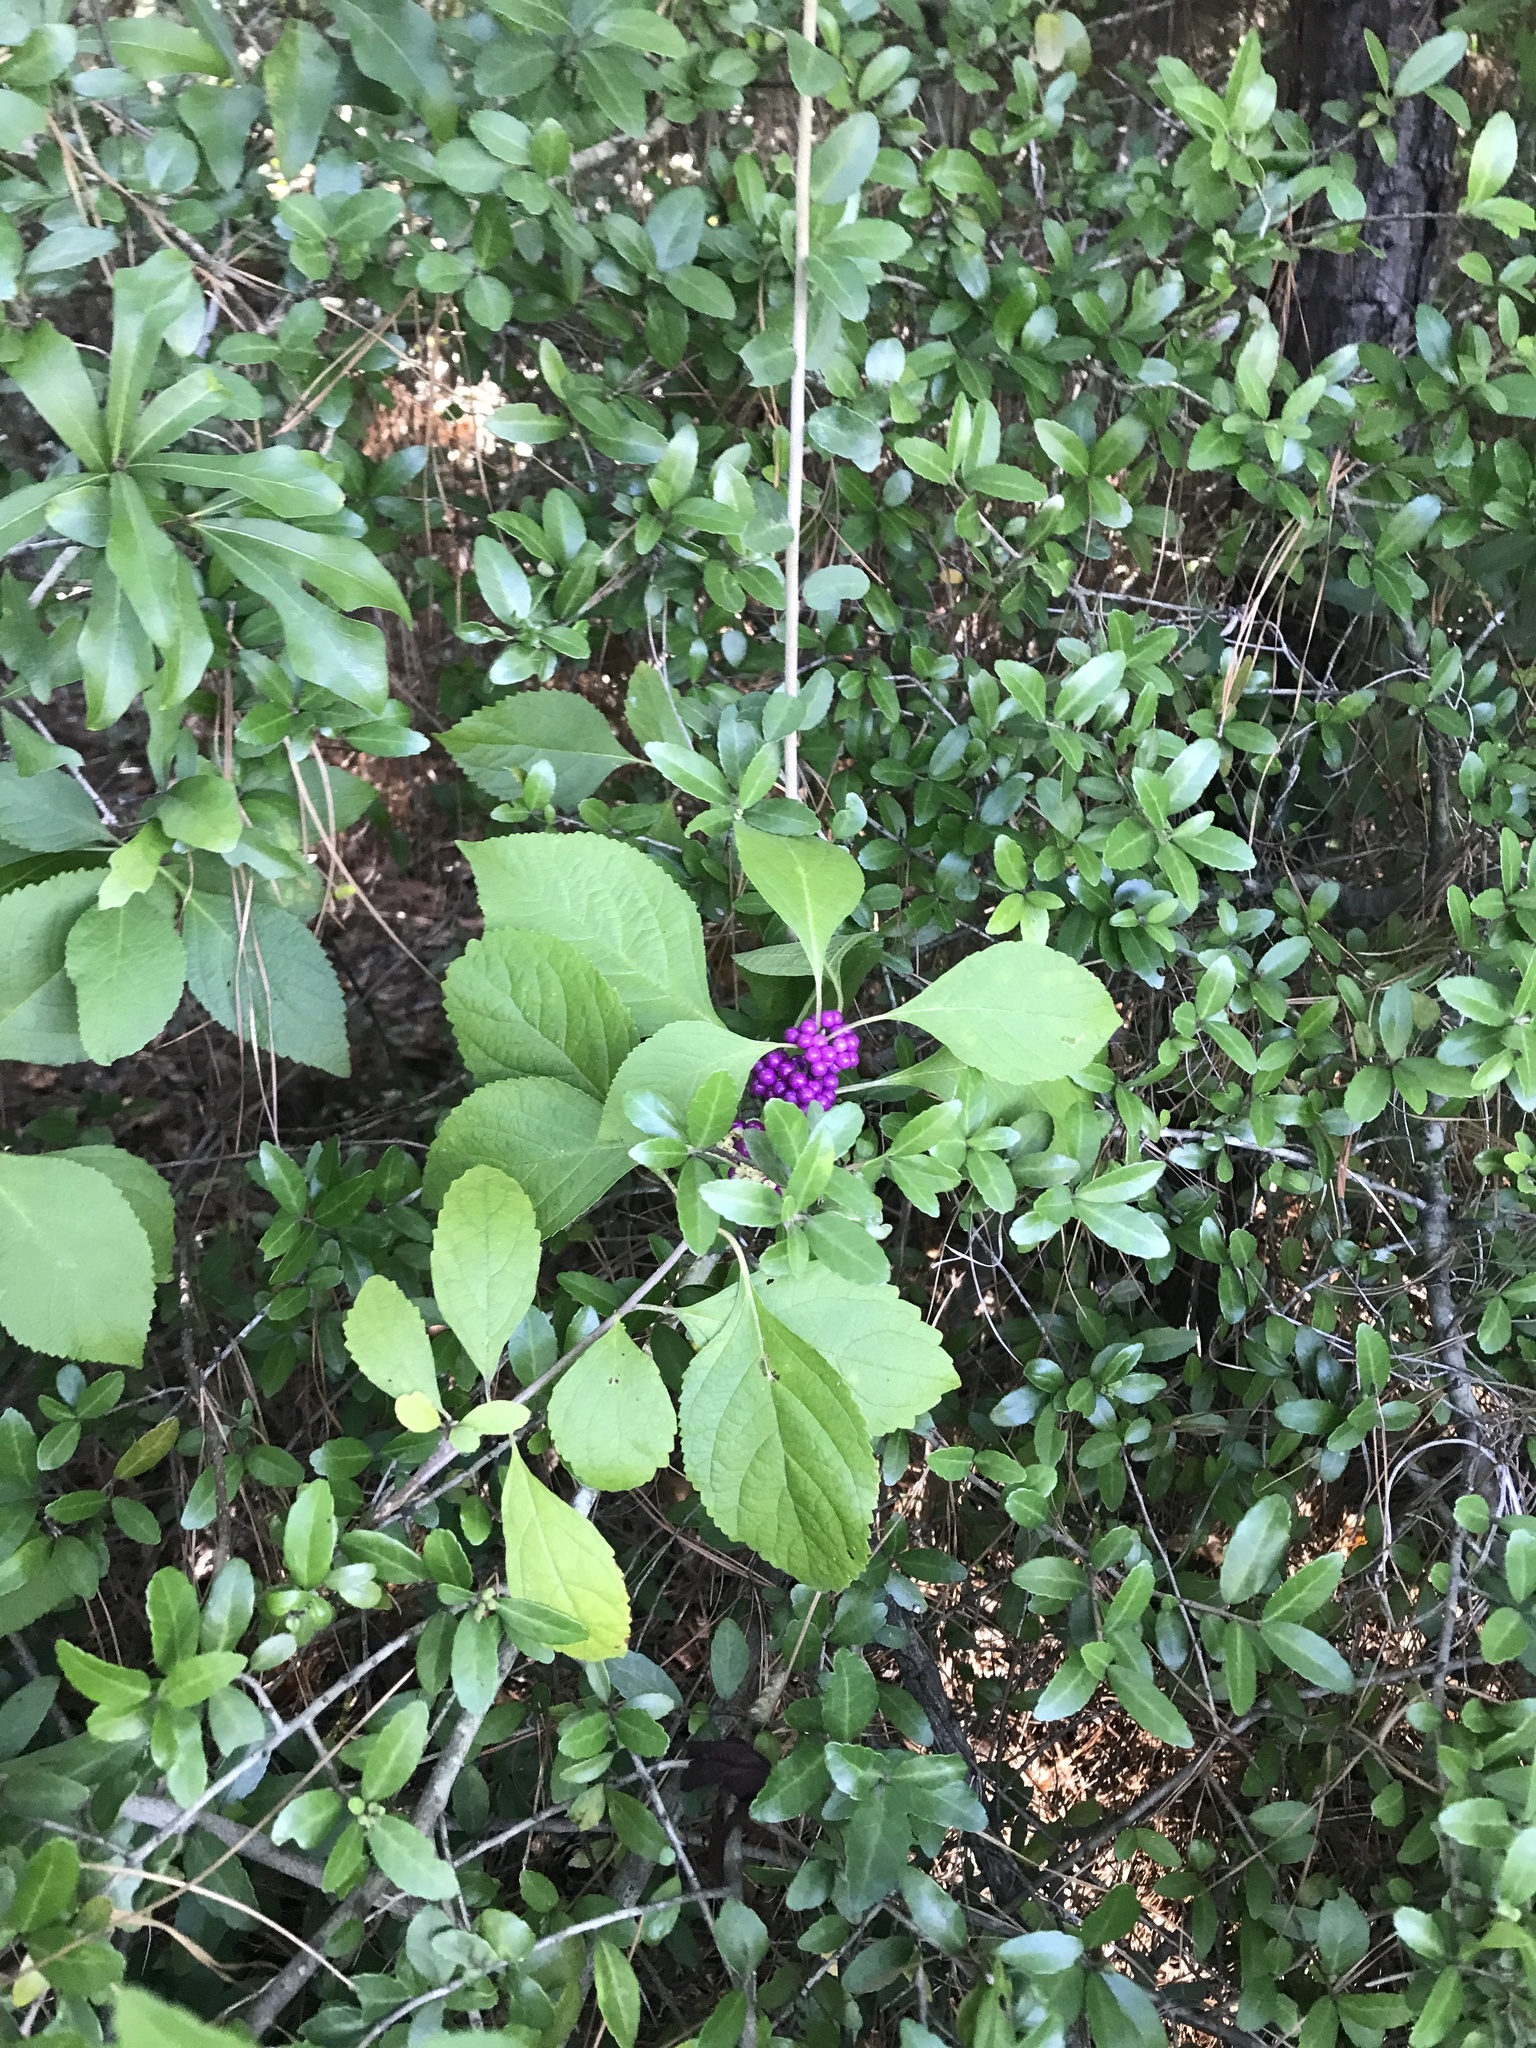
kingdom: Plantae
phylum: Tracheophyta
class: Magnoliopsida
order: Lamiales
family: Lamiaceae
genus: Callicarpa
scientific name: Callicarpa americana
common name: American beautyberry
